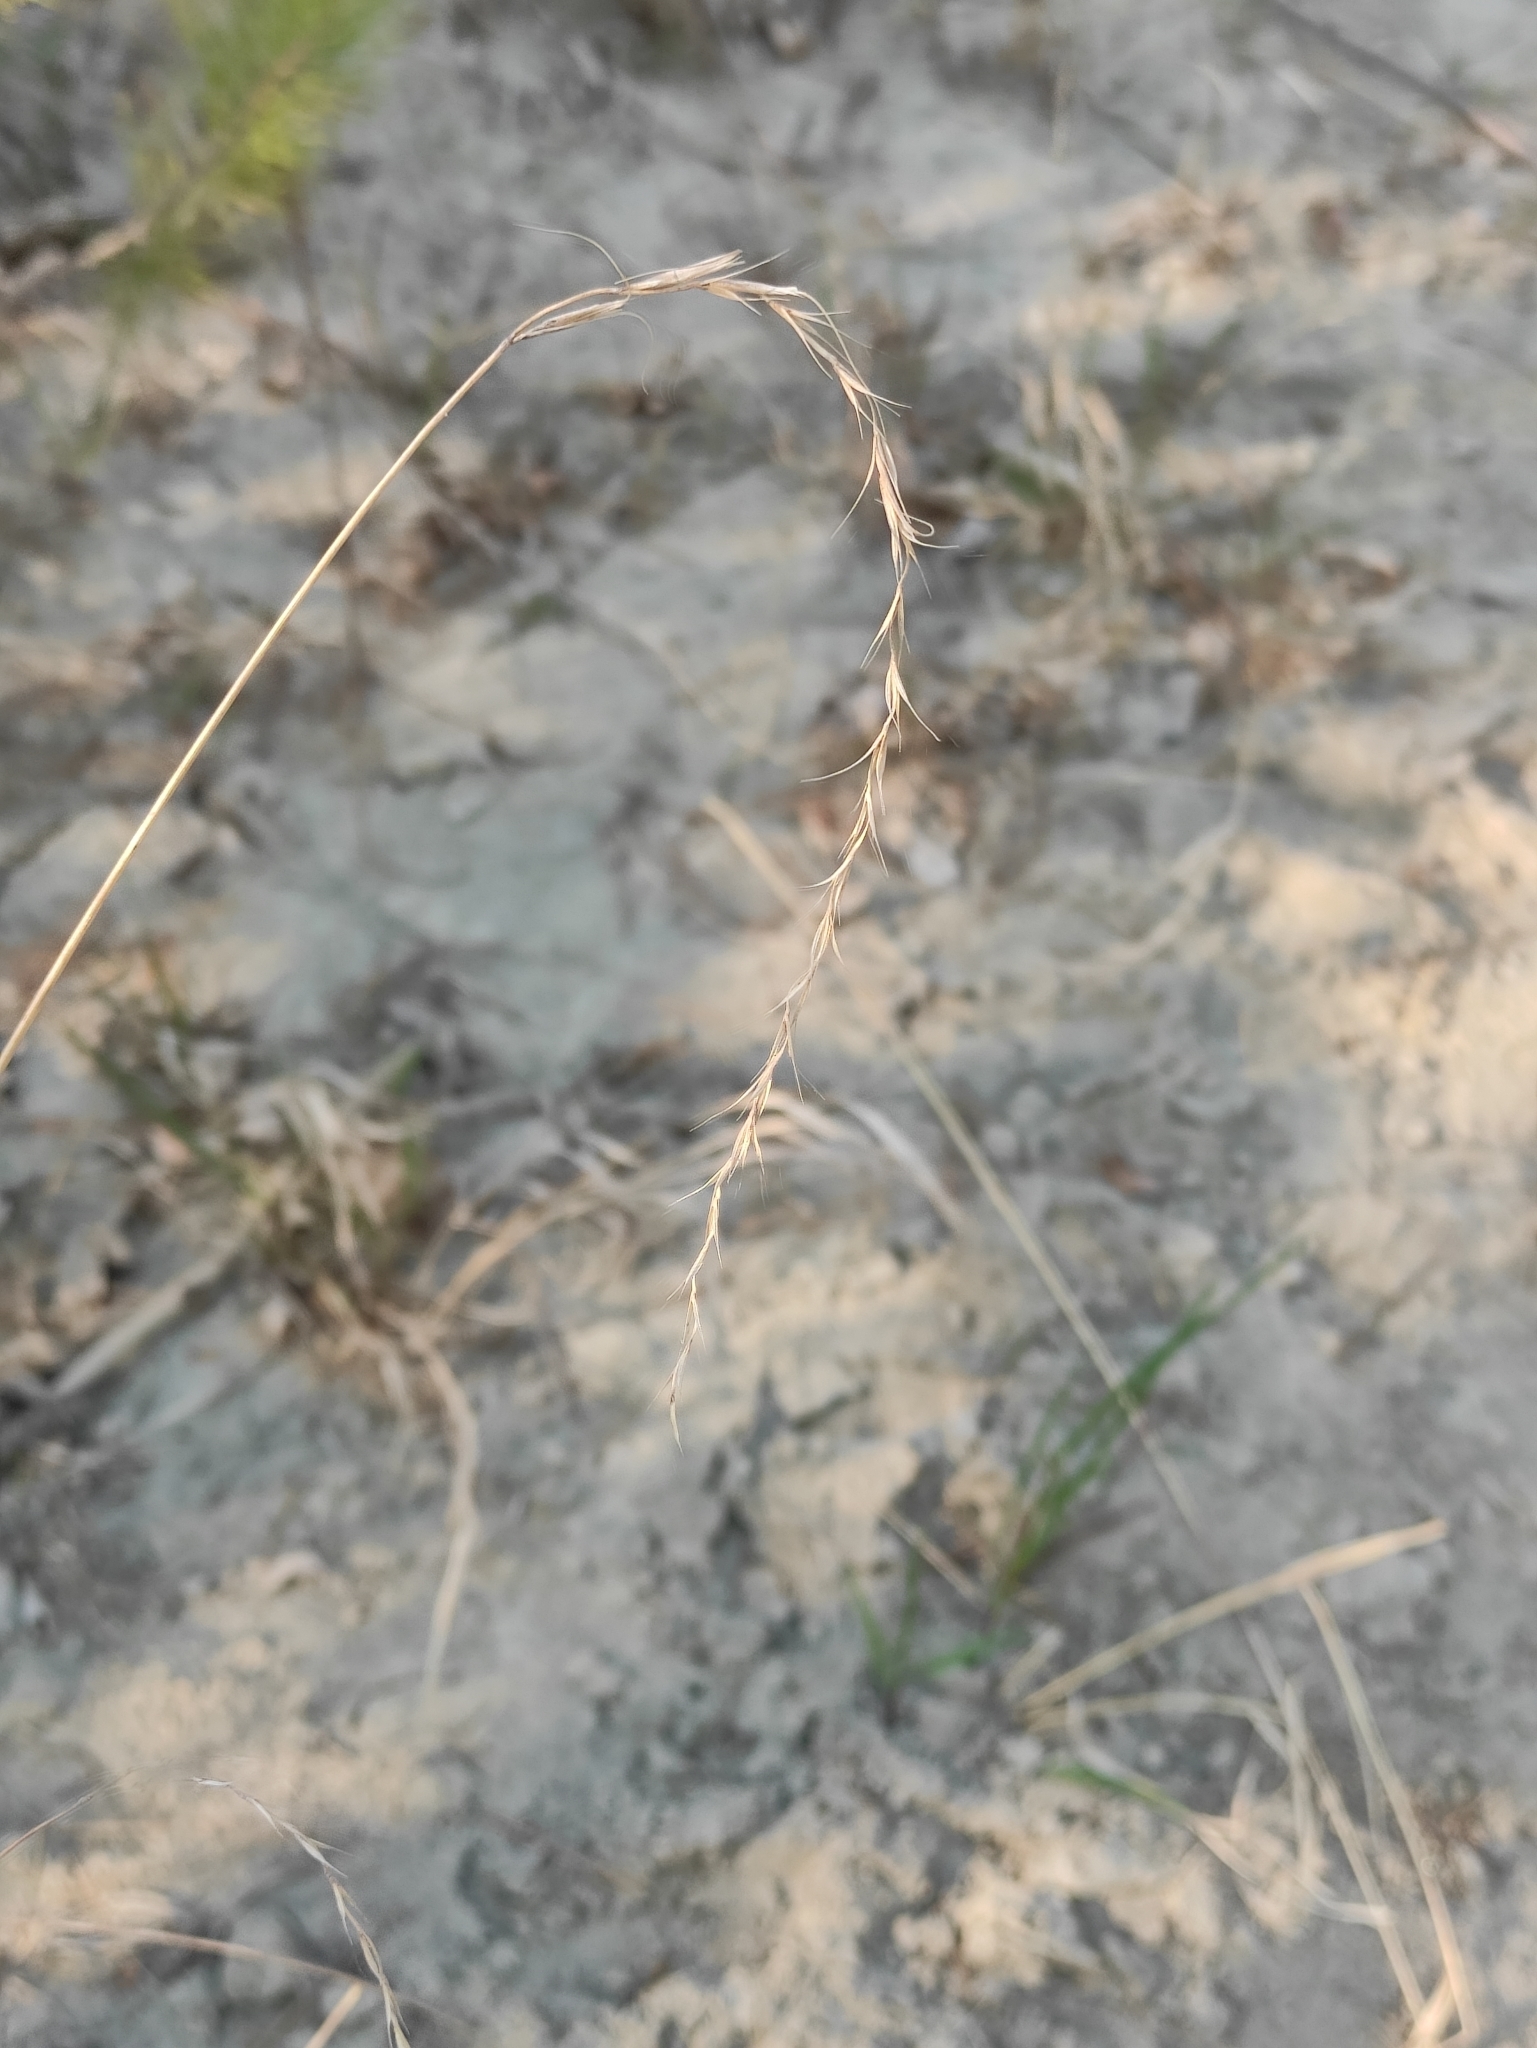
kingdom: Plantae
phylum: Tracheophyta
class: Liliopsida
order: Poales
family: Poaceae
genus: Elymus
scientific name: Elymus sibiricus
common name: Siberian wildrye
